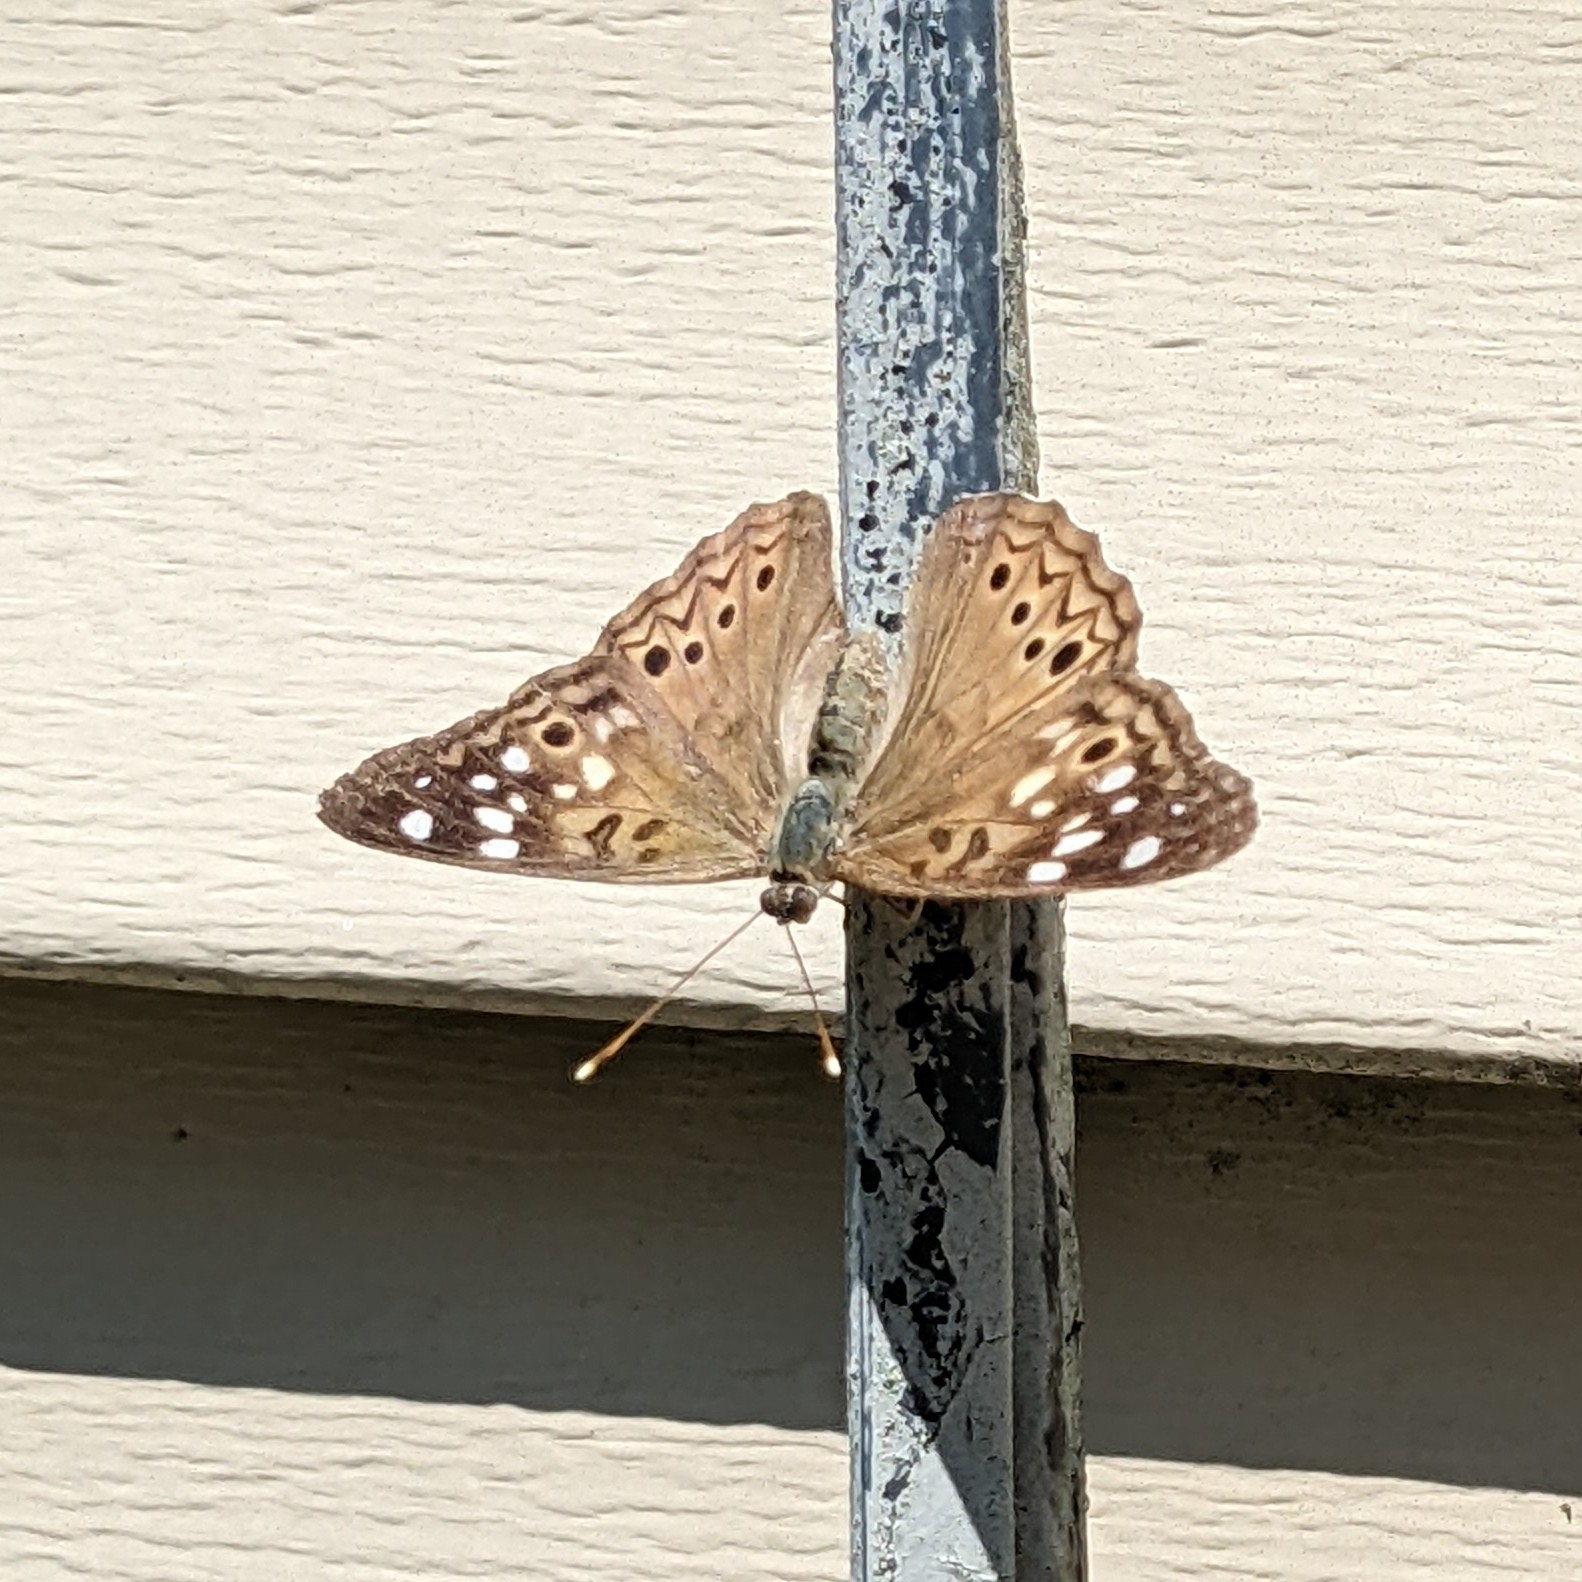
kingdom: Animalia
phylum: Arthropoda
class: Insecta
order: Lepidoptera
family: Nymphalidae
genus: Asterocampa
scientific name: Asterocampa celtis
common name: Hackberry emperor
